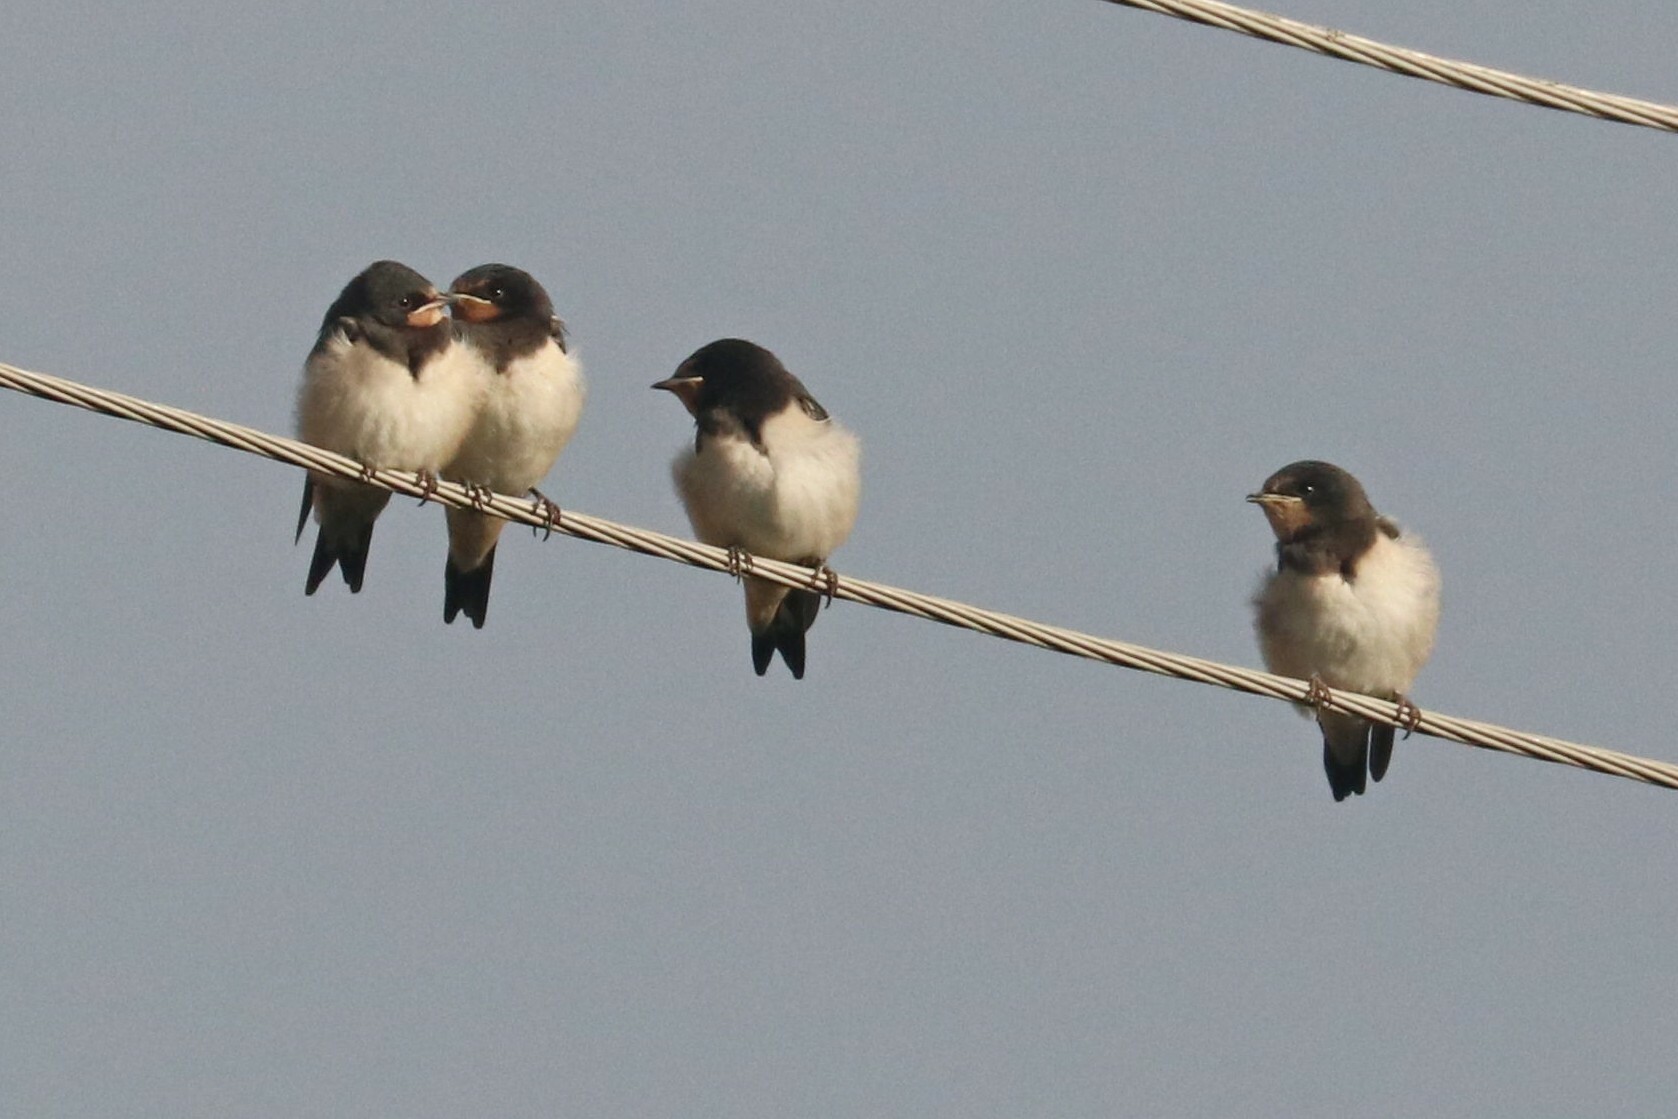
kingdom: Animalia
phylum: Chordata
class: Aves
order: Passeriformes
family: Hirundinidae
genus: Hirundo
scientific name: Hirundo rustica
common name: Barn swallow
